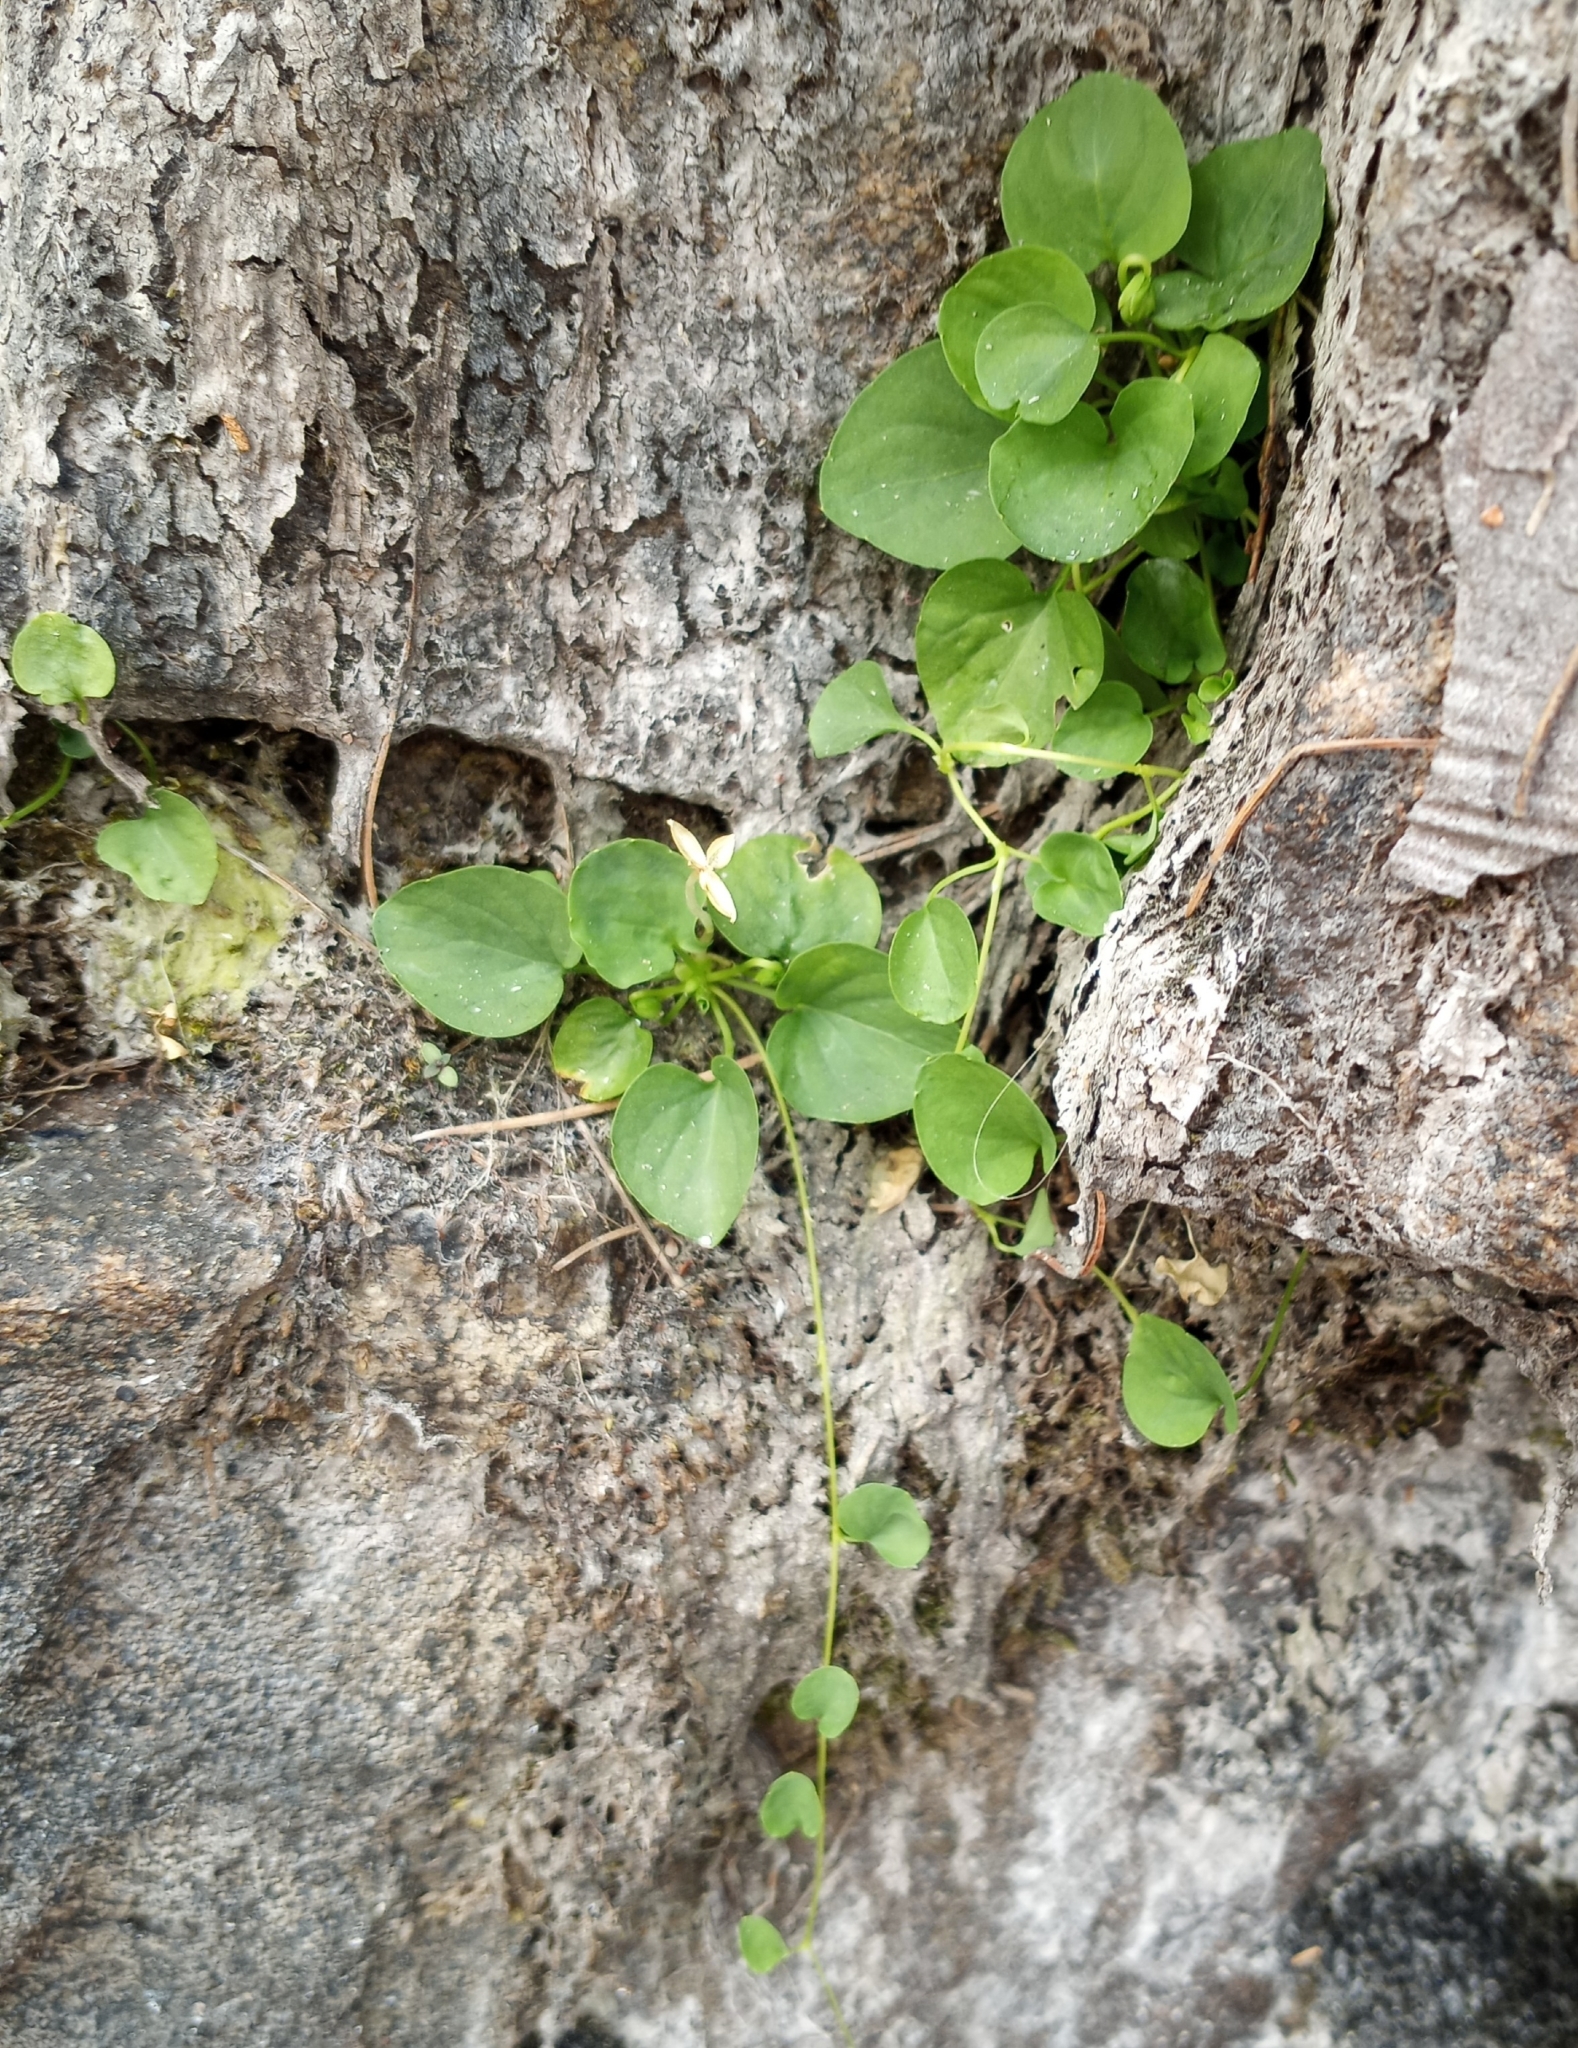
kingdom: Plantae
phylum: Tracheophyta
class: Magnoliopsida
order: Celastrales
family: Parnassiaceae
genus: Parnassia
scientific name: Parnassia palustris
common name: Grass-of-parnassus
